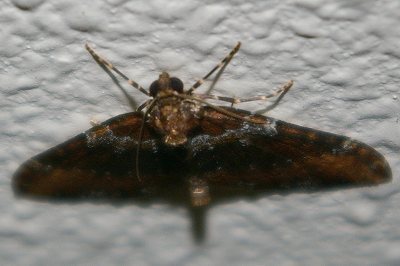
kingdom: Animalia
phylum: Arthropoda
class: Insecta
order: Lepidoptera
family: Geometridae
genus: Melanthia
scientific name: Melanthia catenaria
